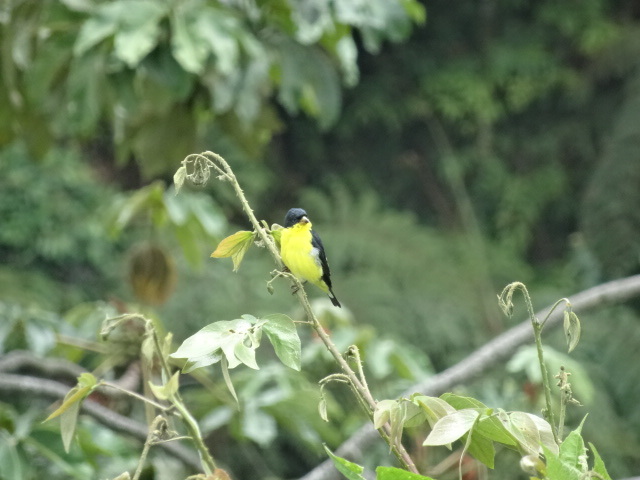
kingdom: Animalia
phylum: Chordata
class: Aves
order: Passeriformes
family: Fringillidae
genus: Spinus
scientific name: Spinus psaltria
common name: Lesser goldfinch
